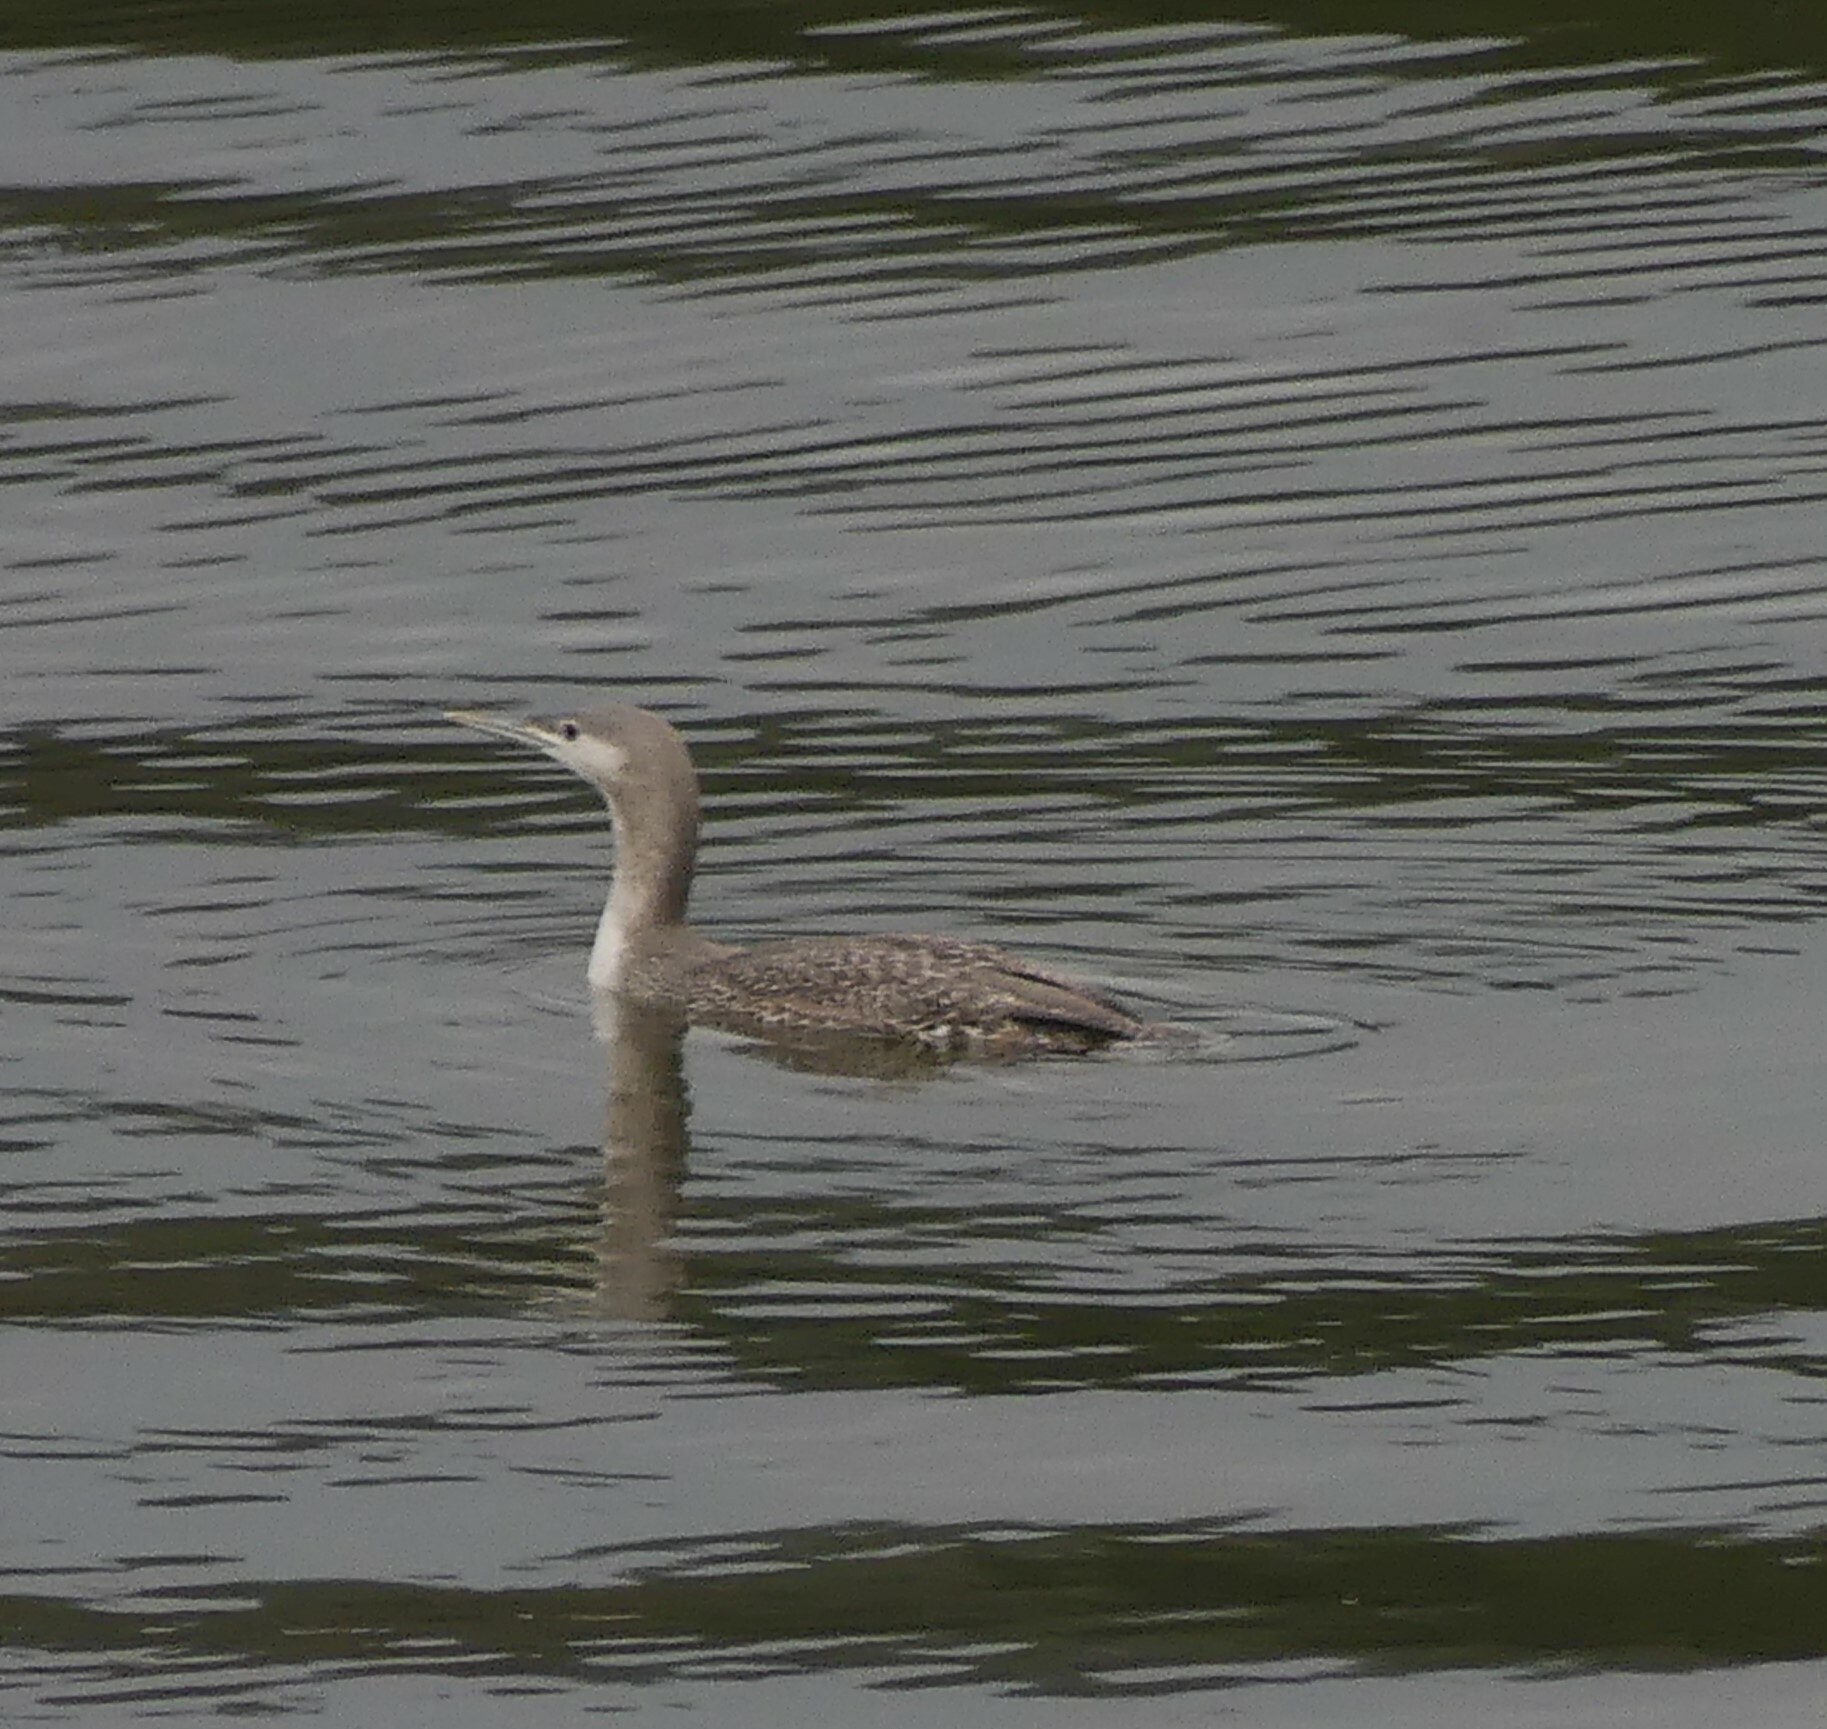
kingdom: Animalia
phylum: Chordata
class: Aves
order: Gaviiformes
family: Gaviidae
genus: Gavia
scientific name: Gavia stellata
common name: Red-throated loon
